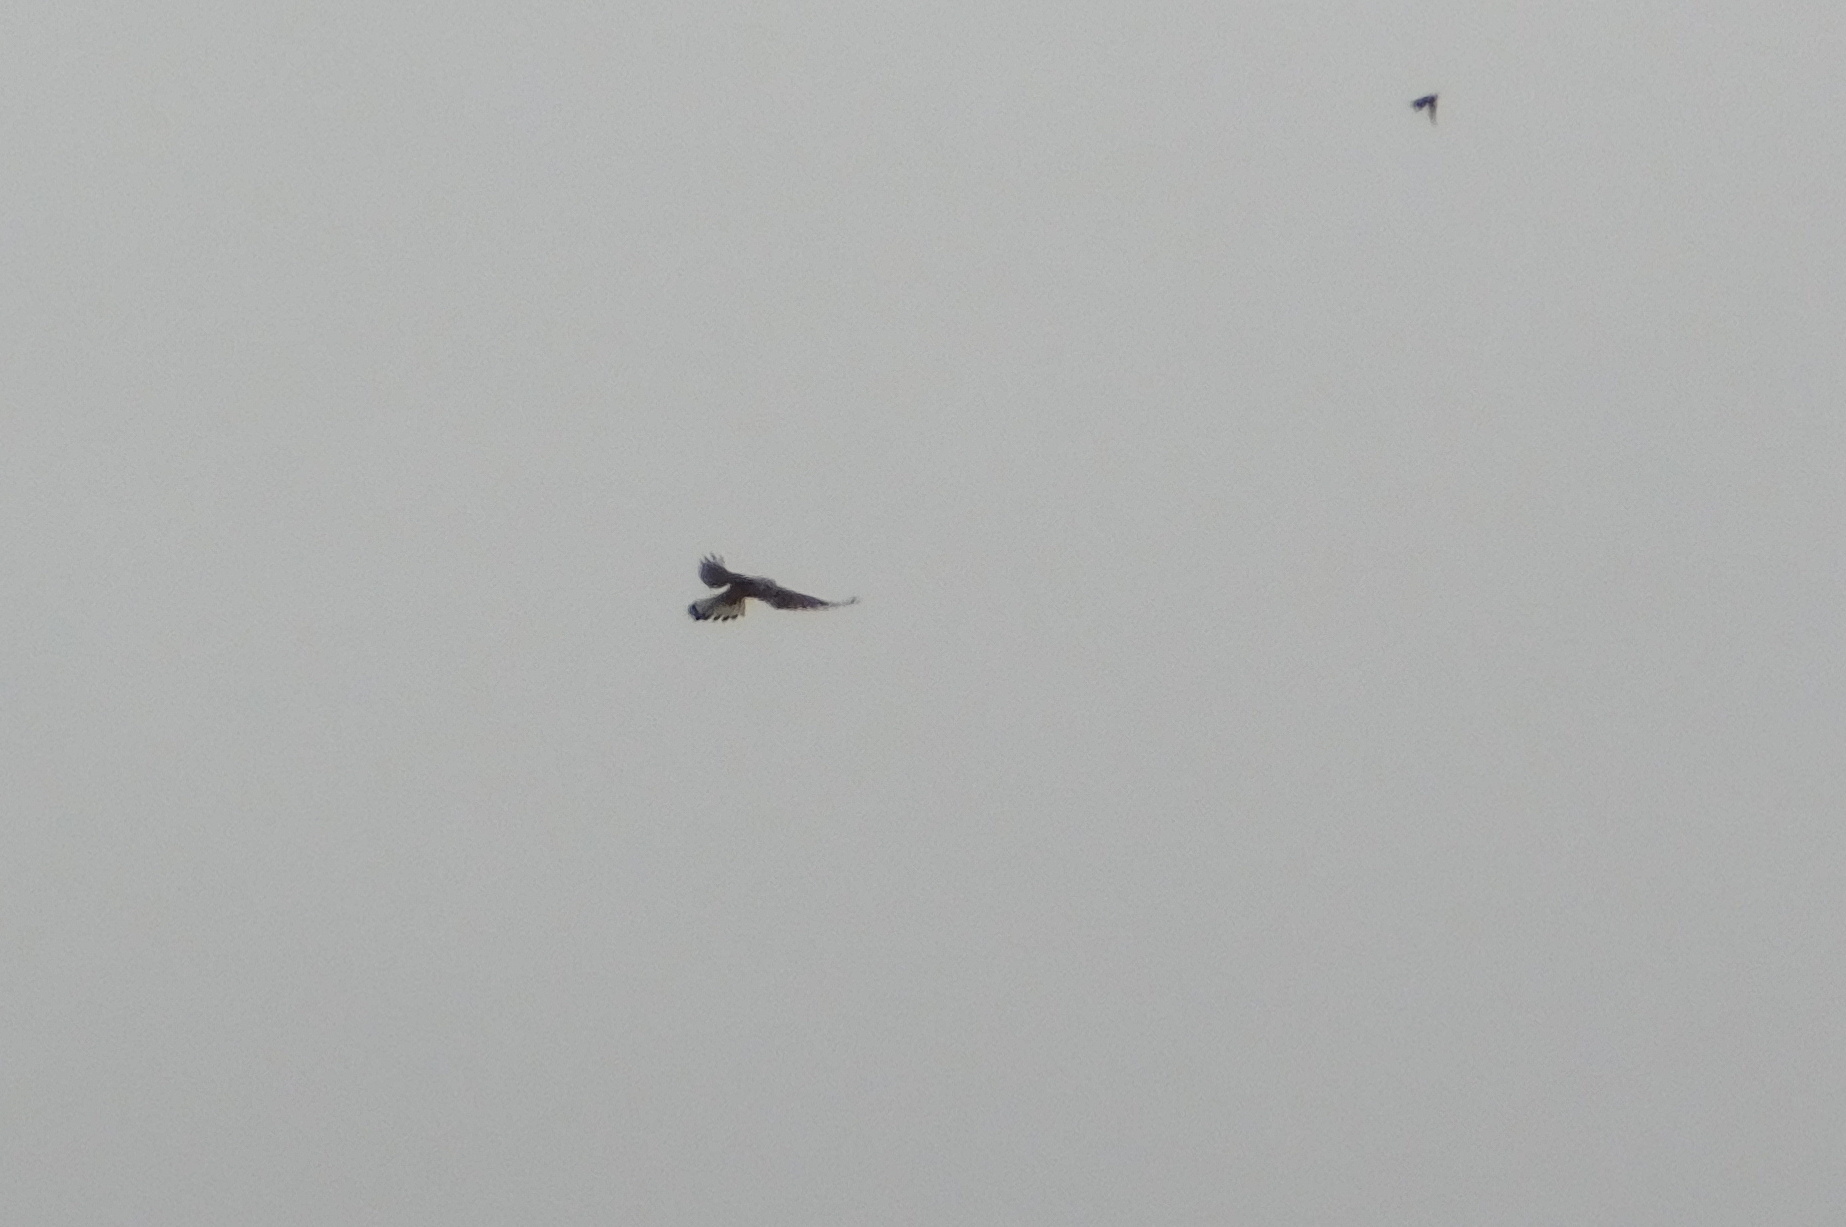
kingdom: Animalia
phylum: Chordata
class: Aves
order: Falconiformes
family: Falconidae
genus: Falco
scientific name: Falco tinnunculus
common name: Common kestrel
